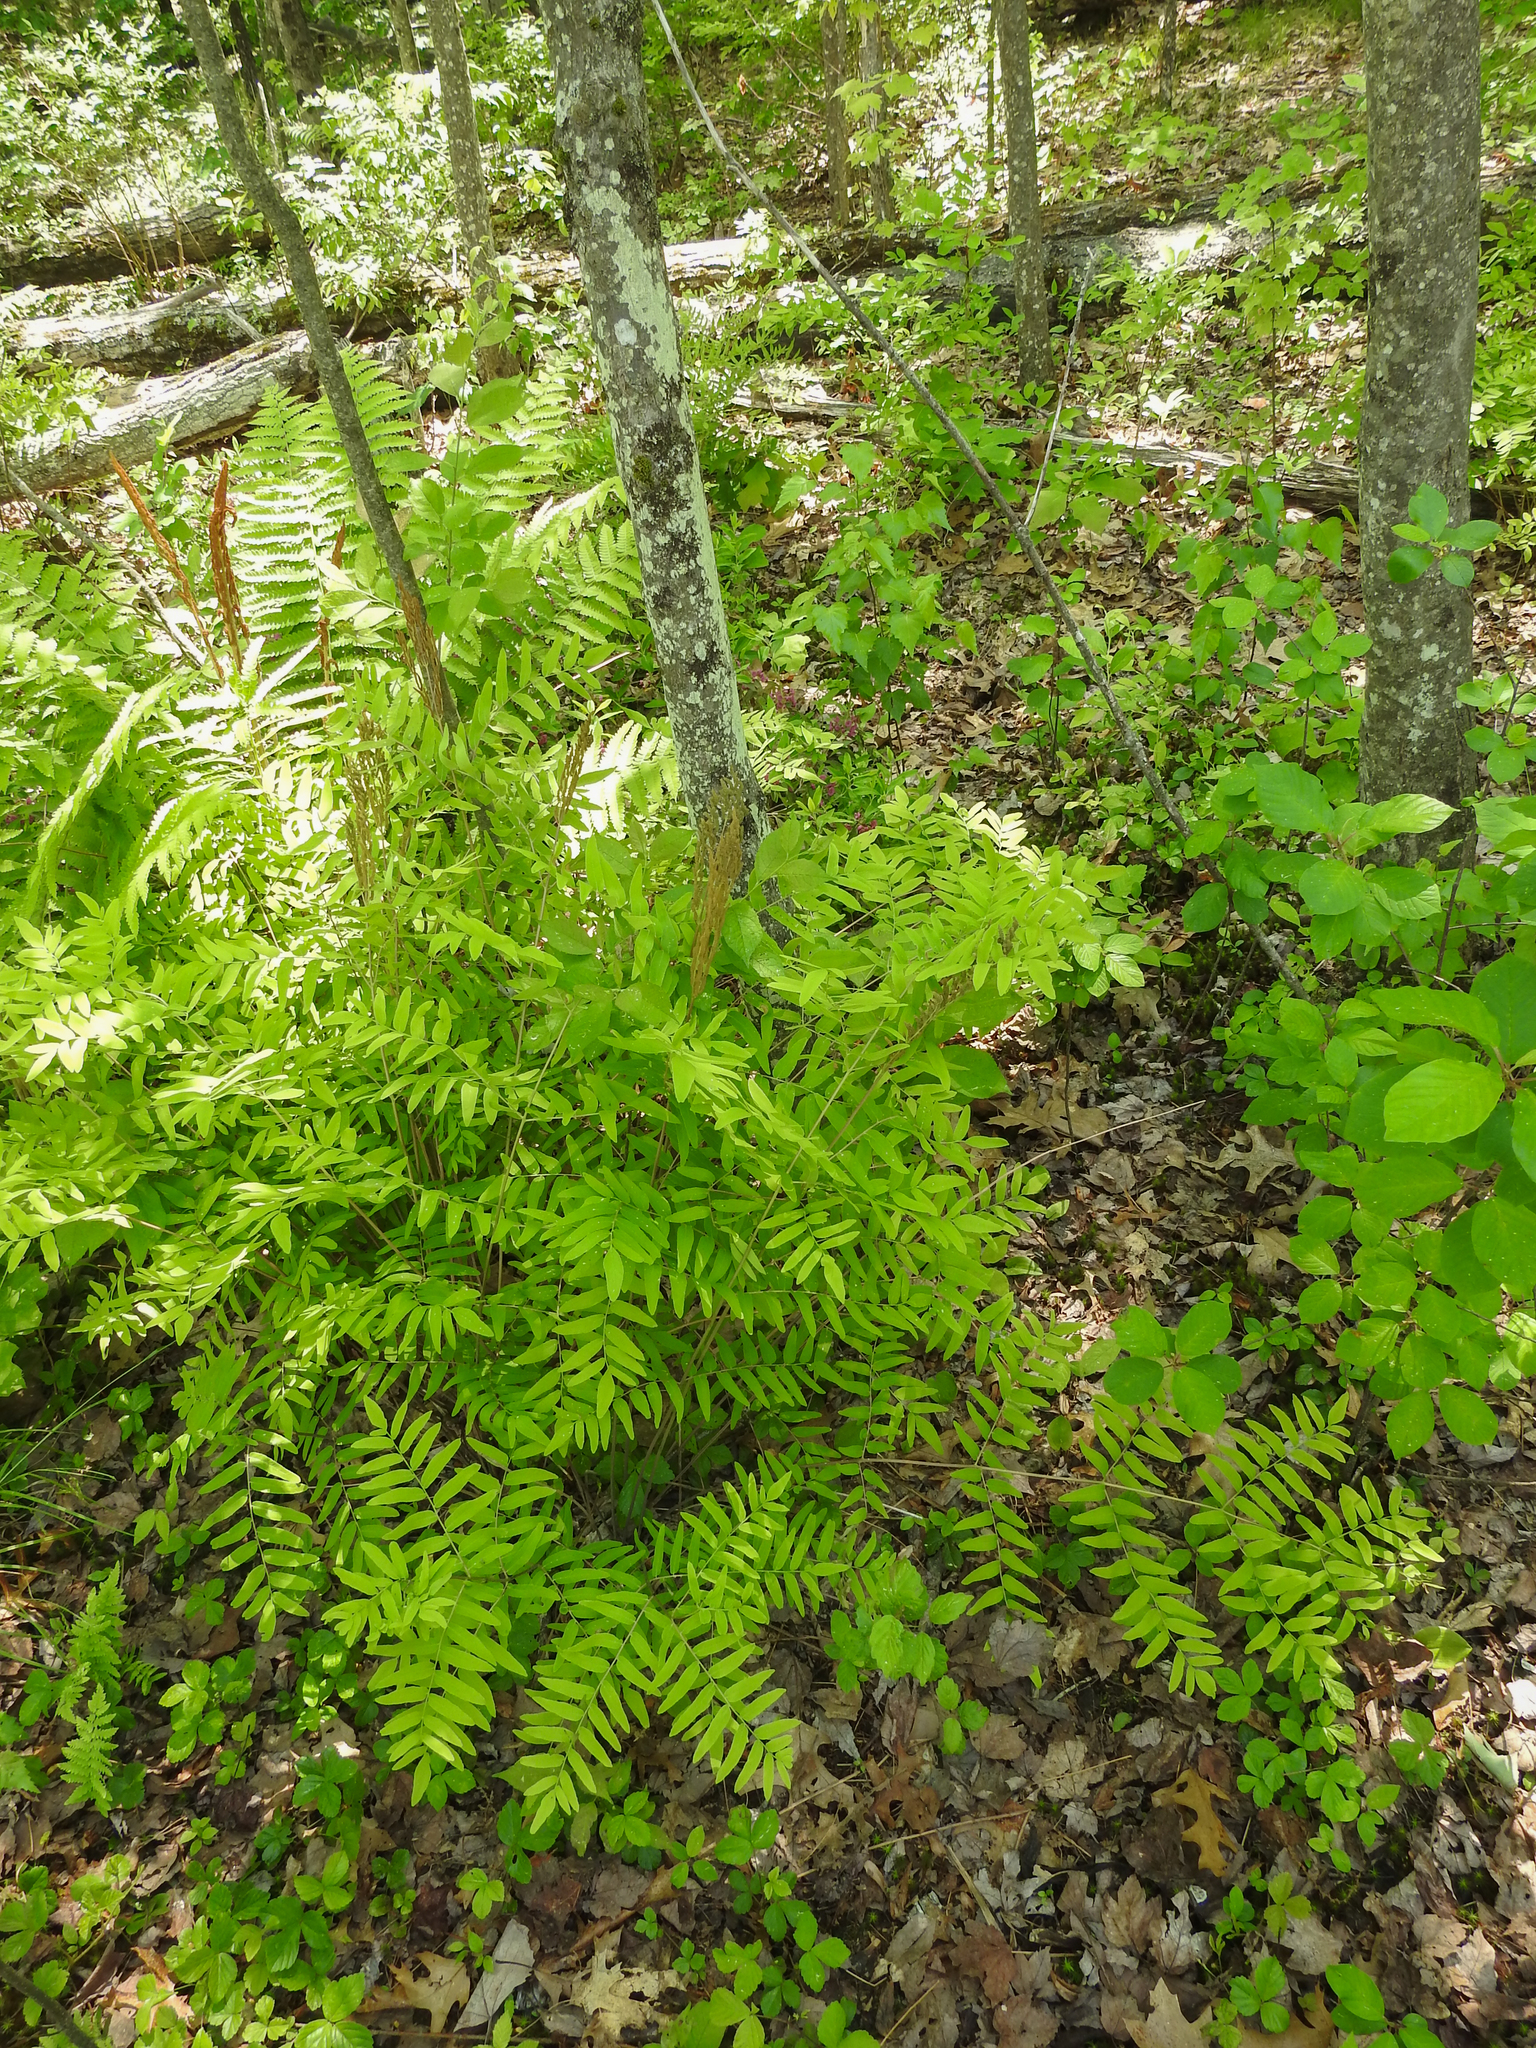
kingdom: Plantae
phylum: Tracheophyta
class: Polypodiopsida
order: Osmundales
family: Osmundaceae
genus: Osmunda
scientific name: Osmunda spectabilis
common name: American royal fern
